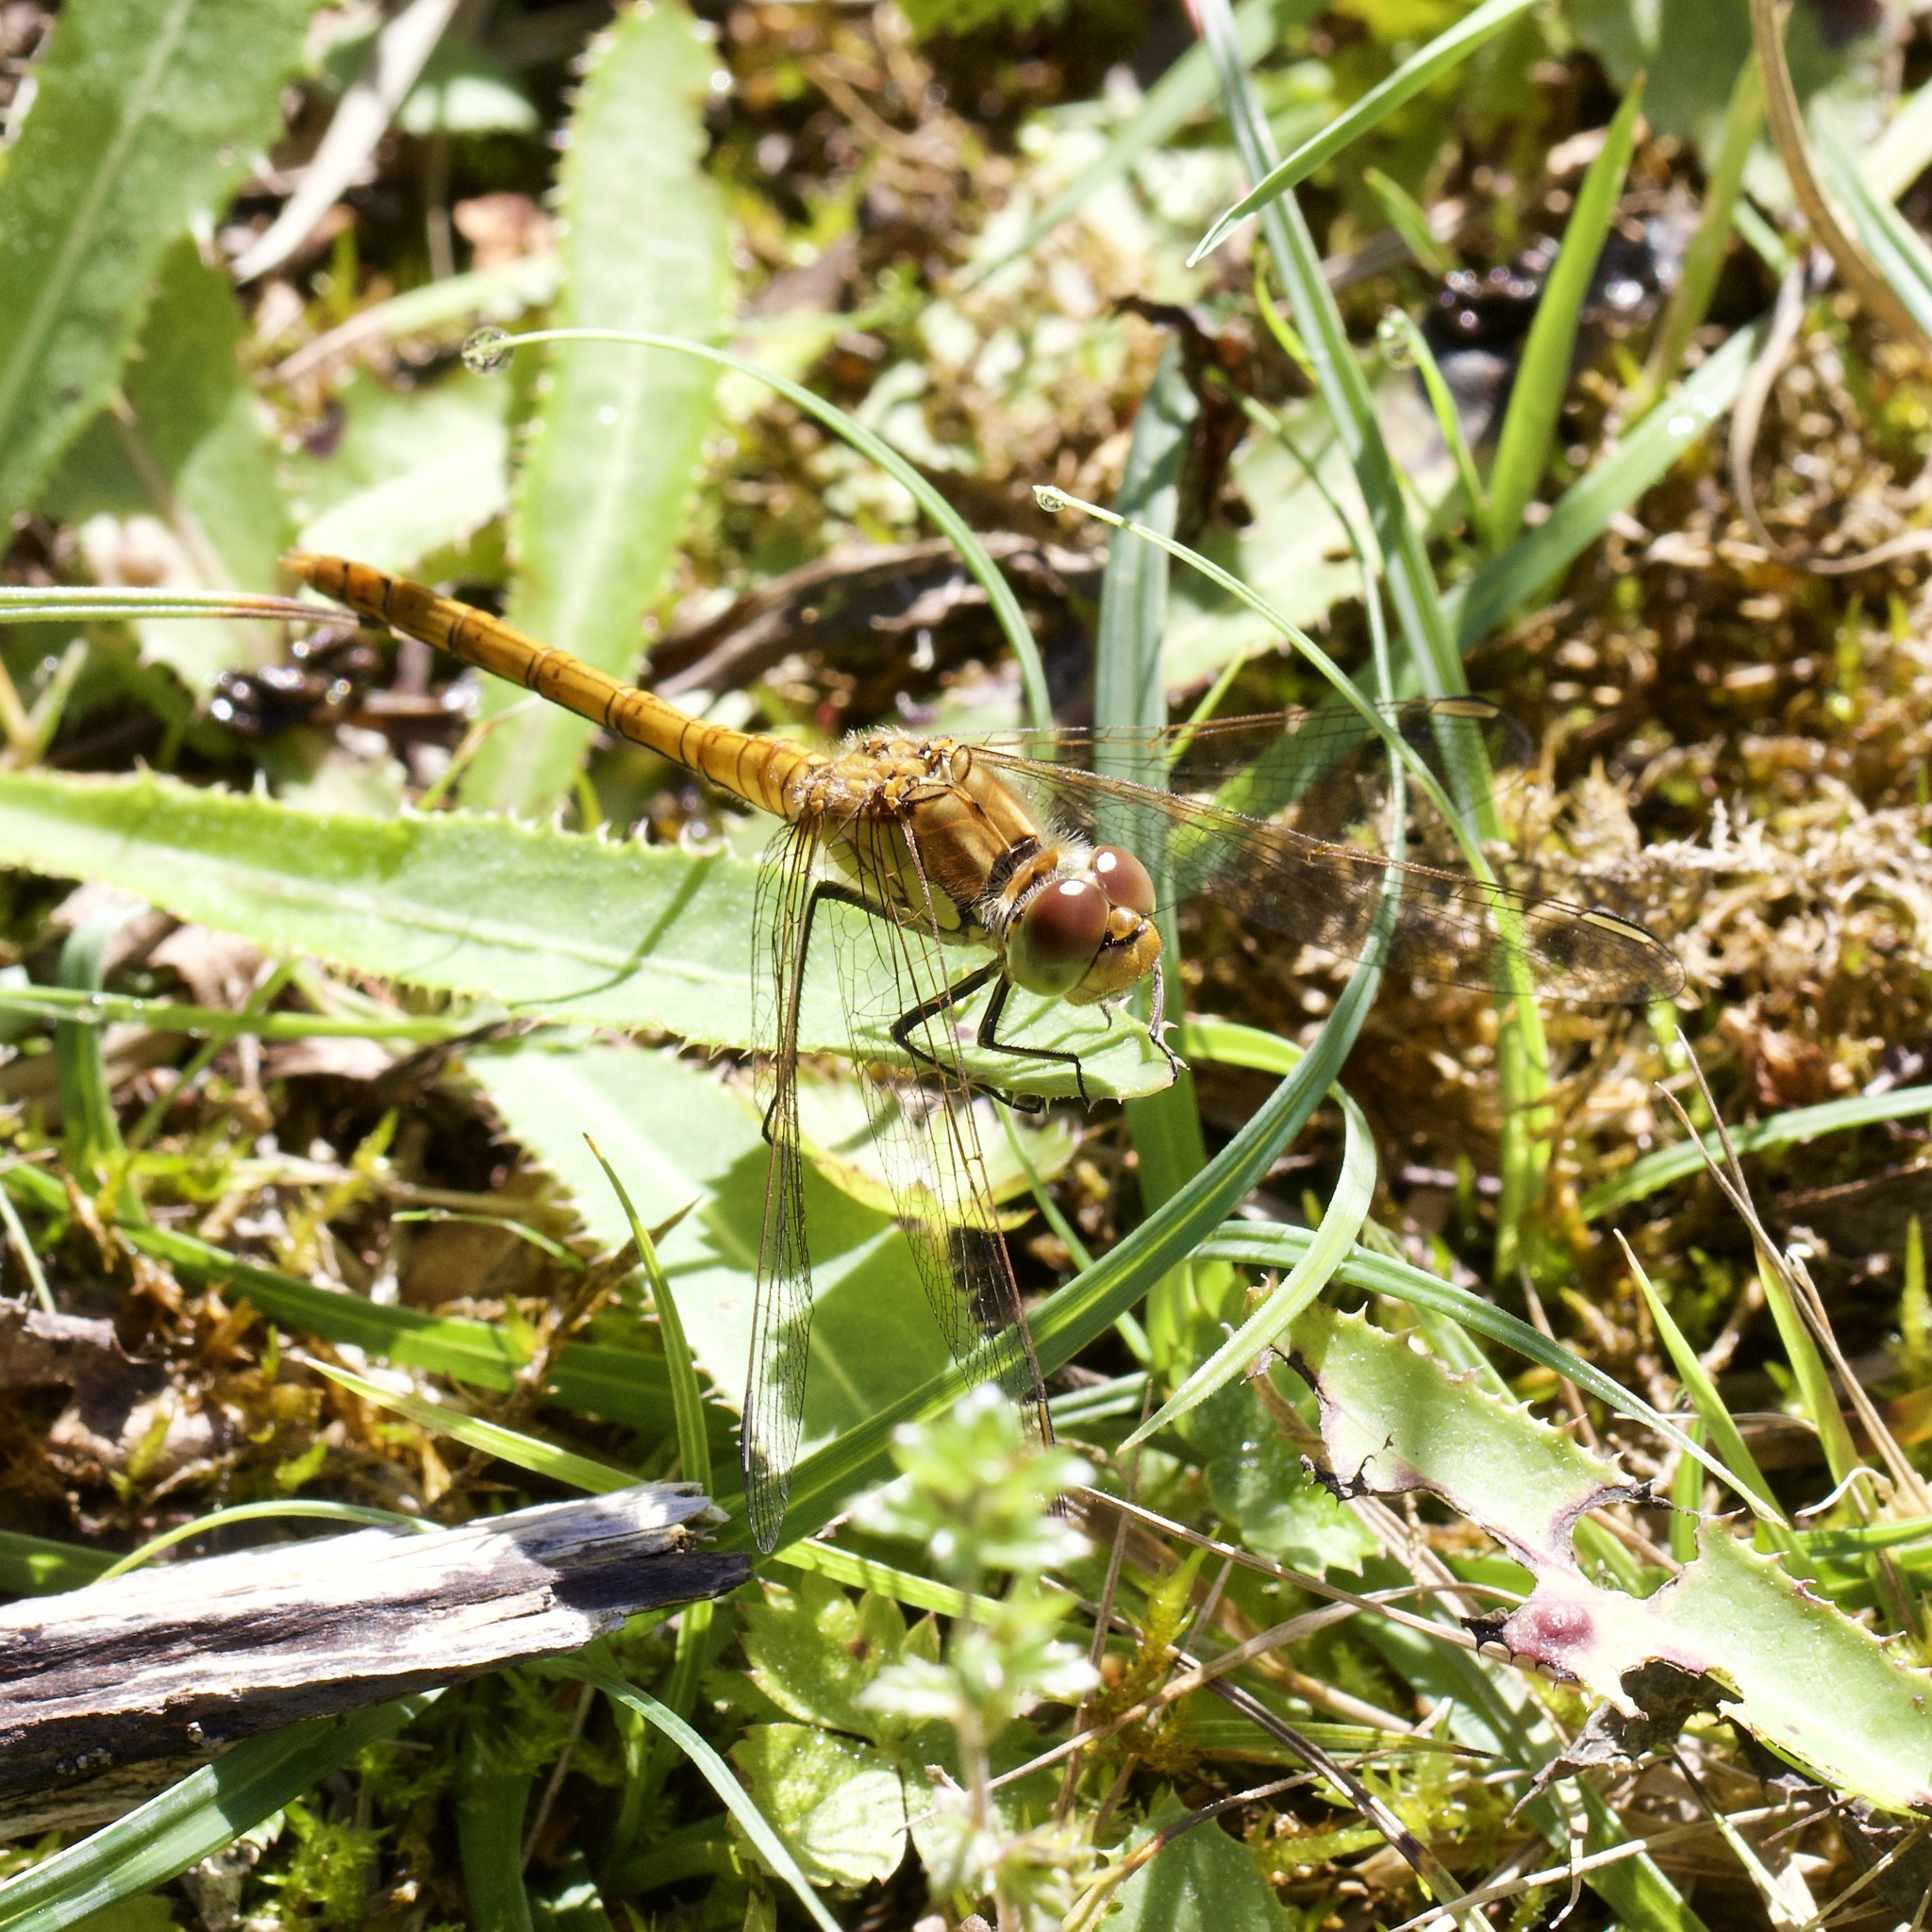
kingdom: Animalia
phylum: Arthropoda
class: Insecta
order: Odonata
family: Libellulidae
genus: Sympetrum
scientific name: Sympetrum striolatum
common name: Common darter
